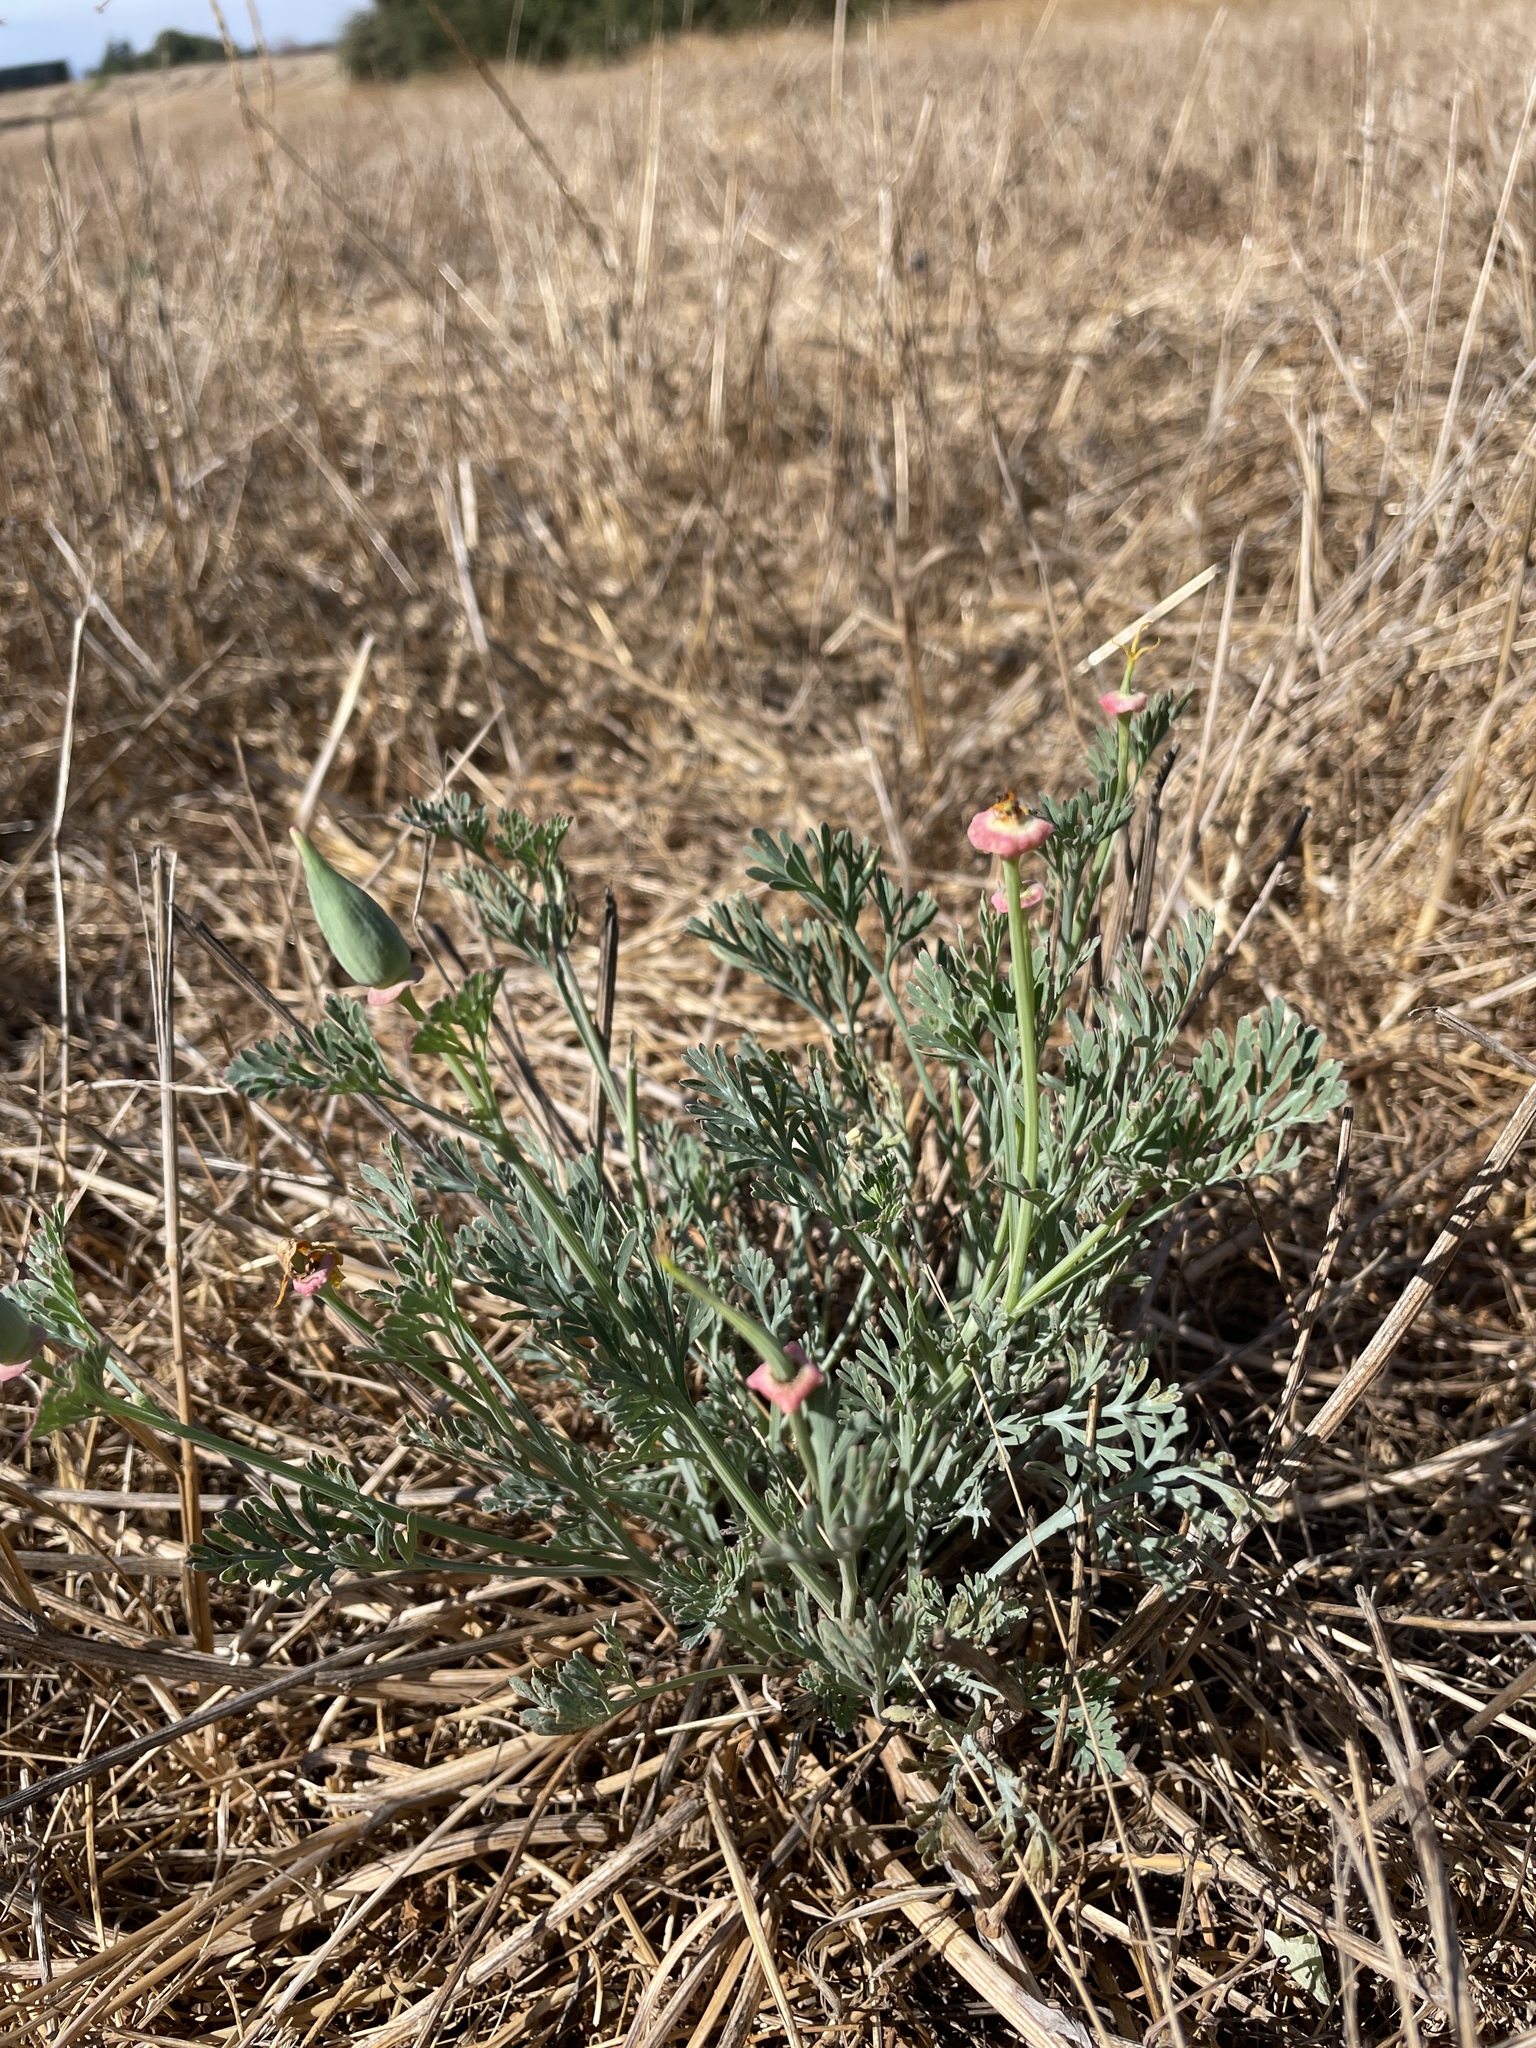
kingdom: Plantae
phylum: Tracheophyta
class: Magnoliopsida
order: Ranunculales
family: Papaveraceae
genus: Eschscholzia
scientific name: Eschscholzia californica
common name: California poppy
